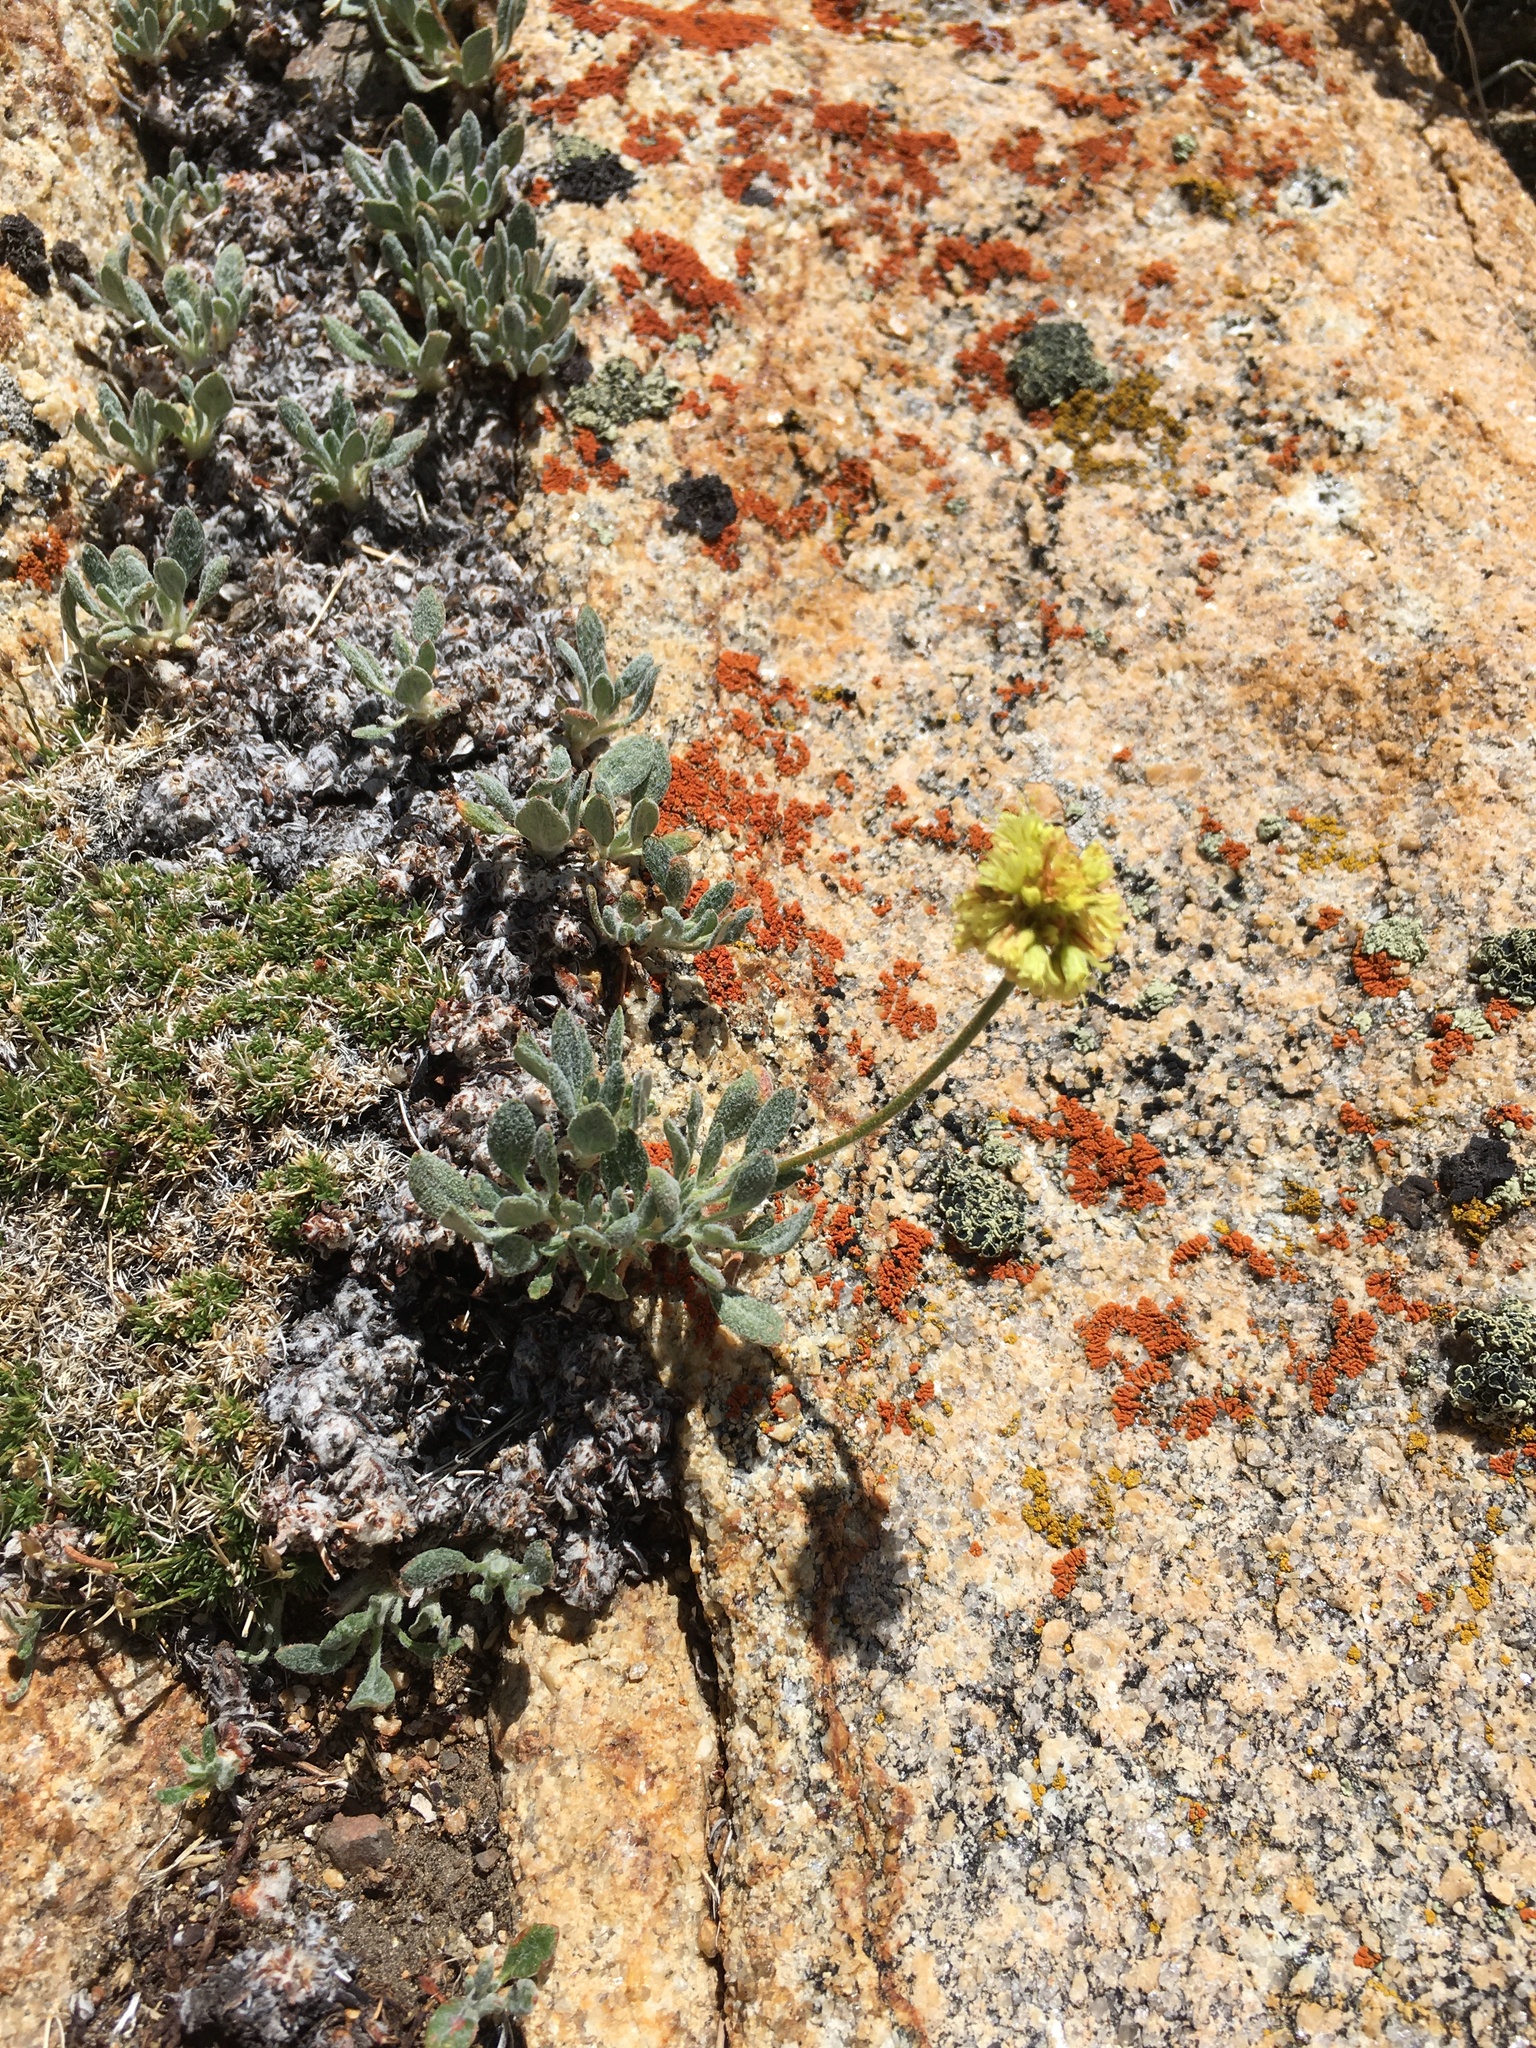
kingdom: Plantae
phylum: Tracheophyta
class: Magnoliopsida
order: Caryophyllales
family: Polygonaceae
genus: Eriogonum
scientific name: Eriogonum rosense
